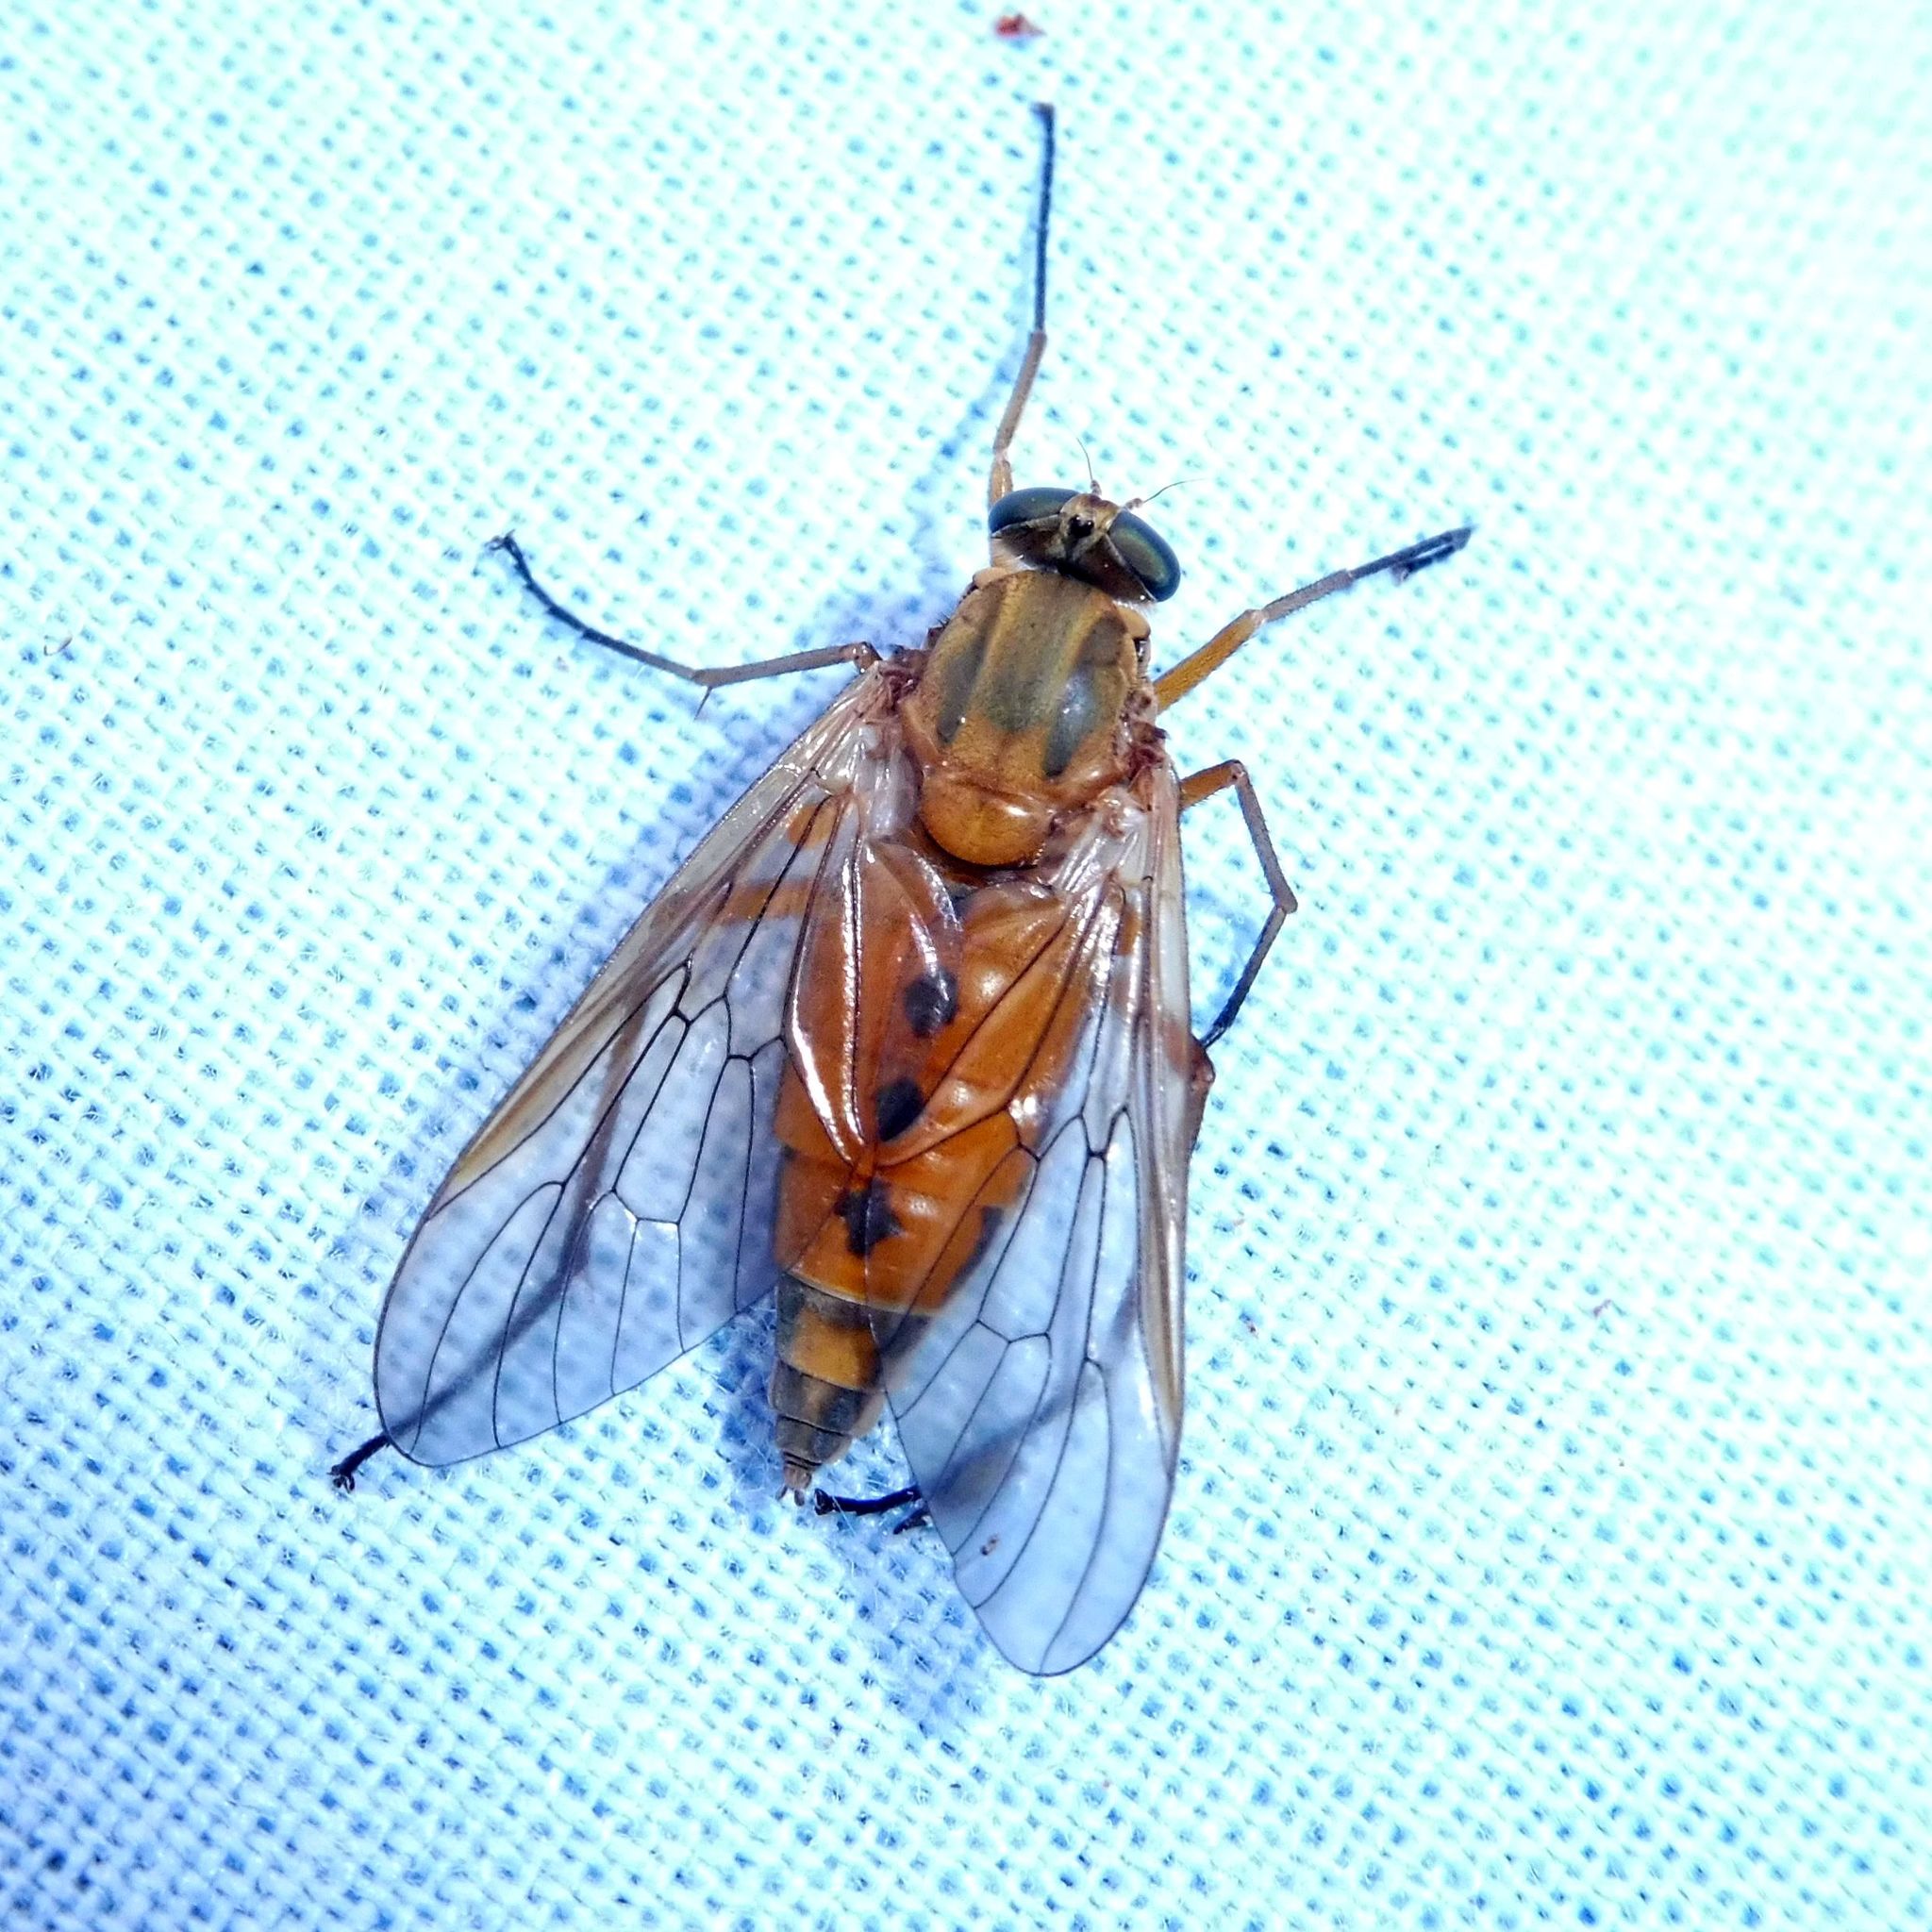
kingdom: Animalia
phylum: Arthropoda
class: Insecta
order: Diptera
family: Rhagionidae
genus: Rhagio
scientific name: Rhagio tringaria
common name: Marsh snipefly
